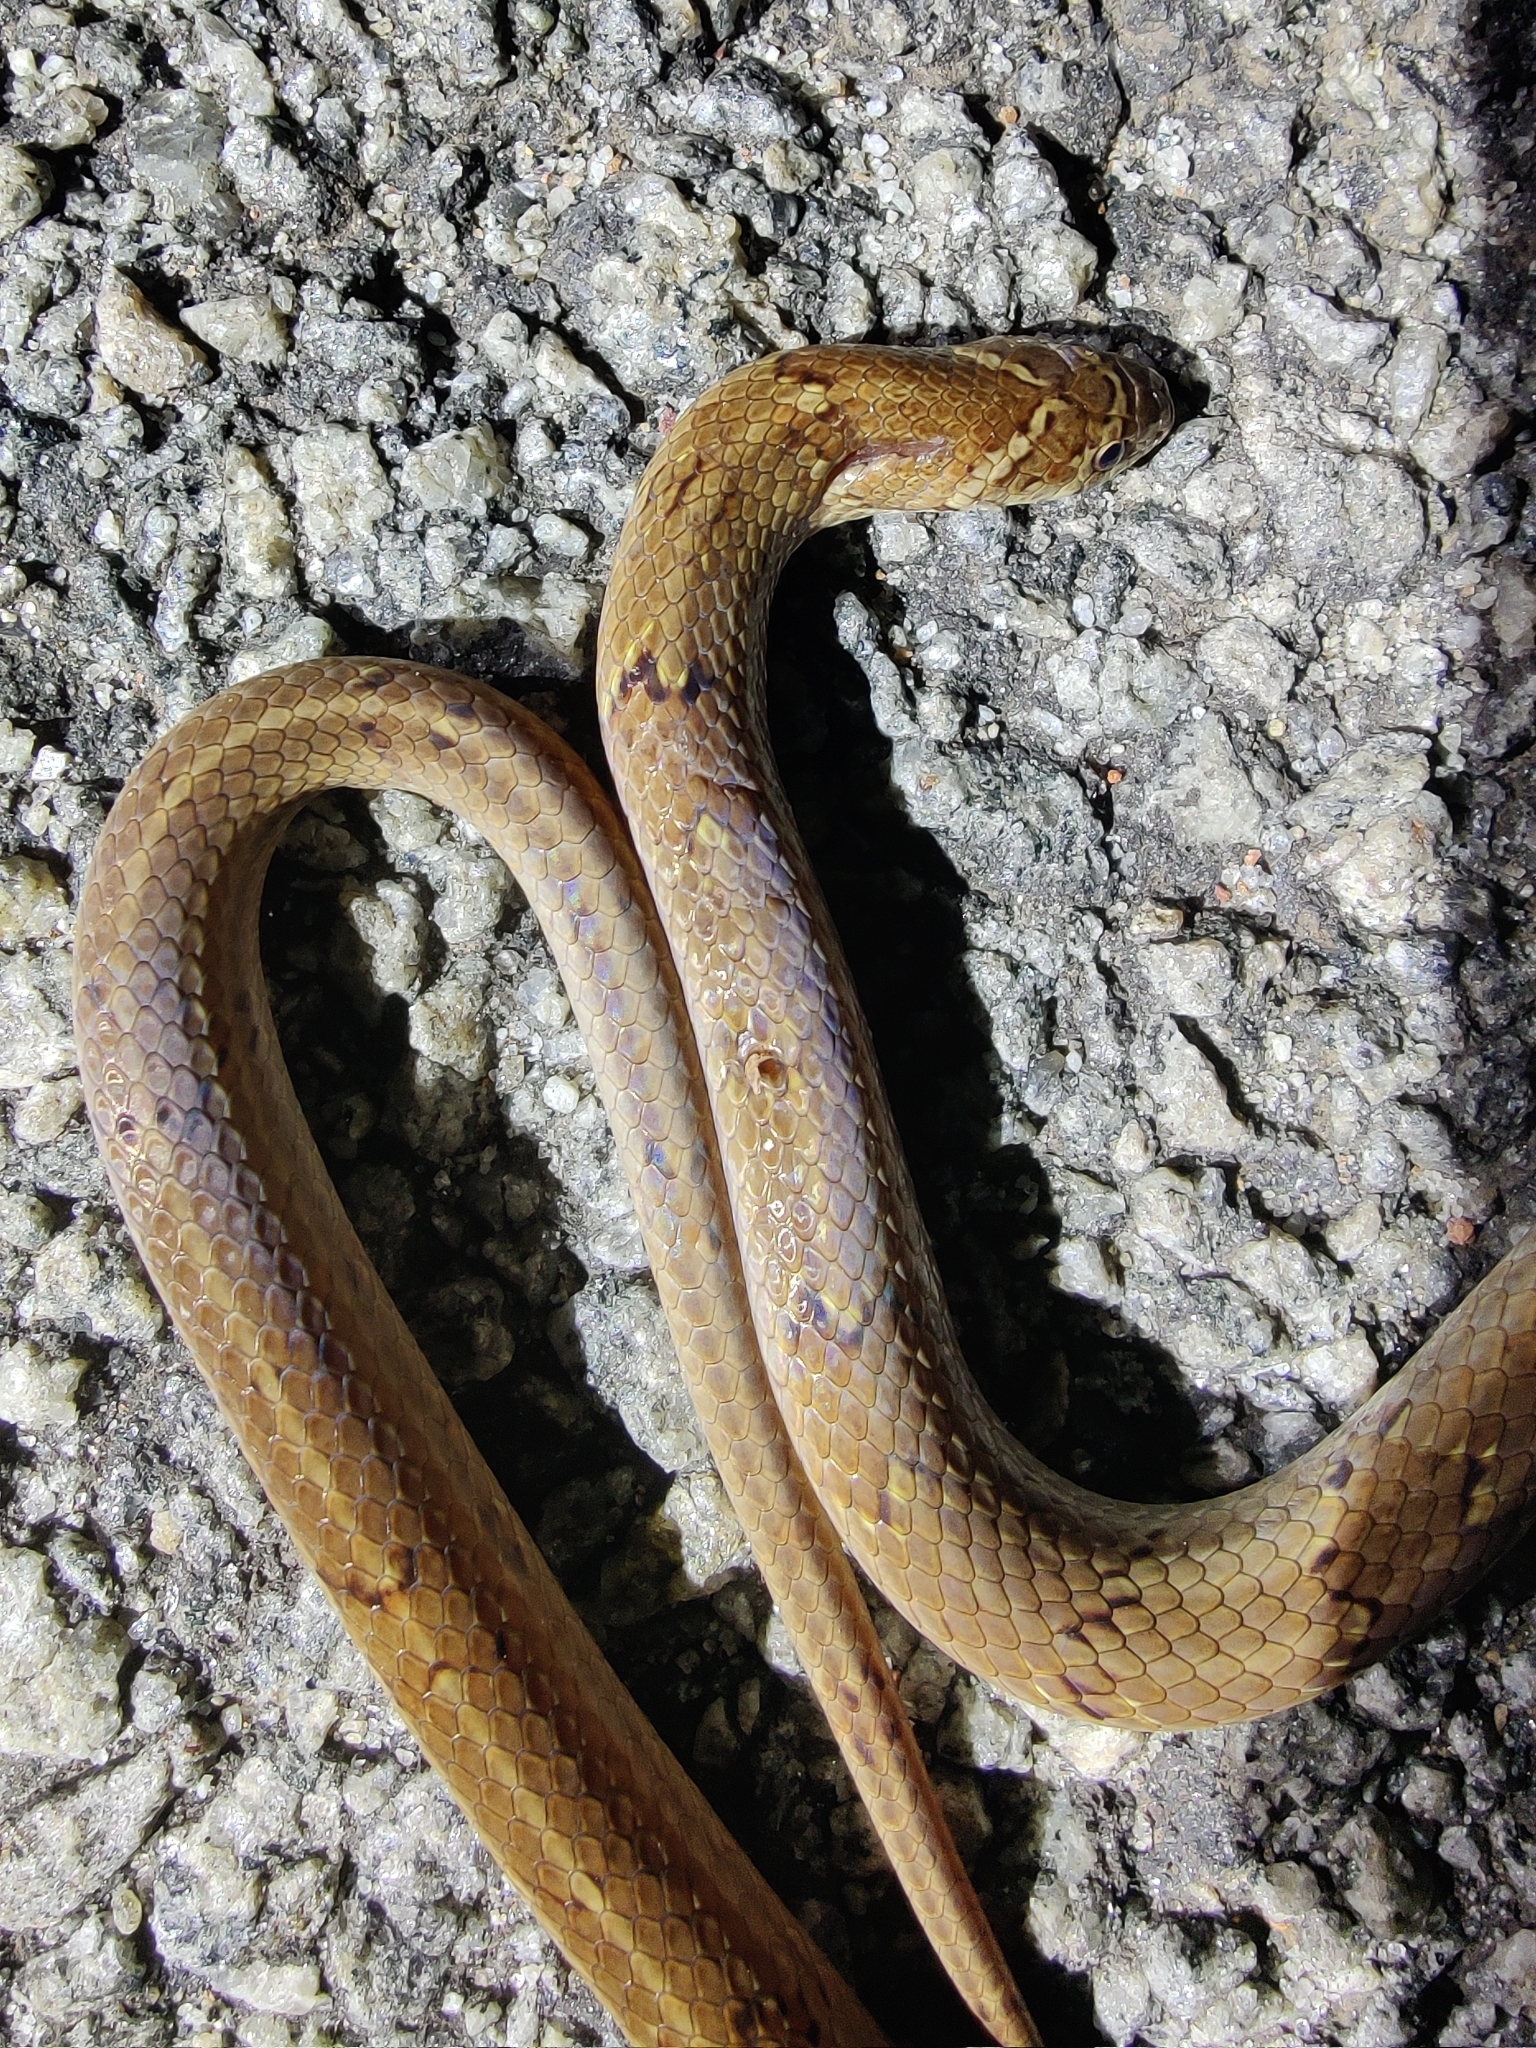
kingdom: Animalia
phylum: Chordata
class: Squamata
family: Colubridae
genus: Oligodon
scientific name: Oligodon taeniolatus
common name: Loos snake
